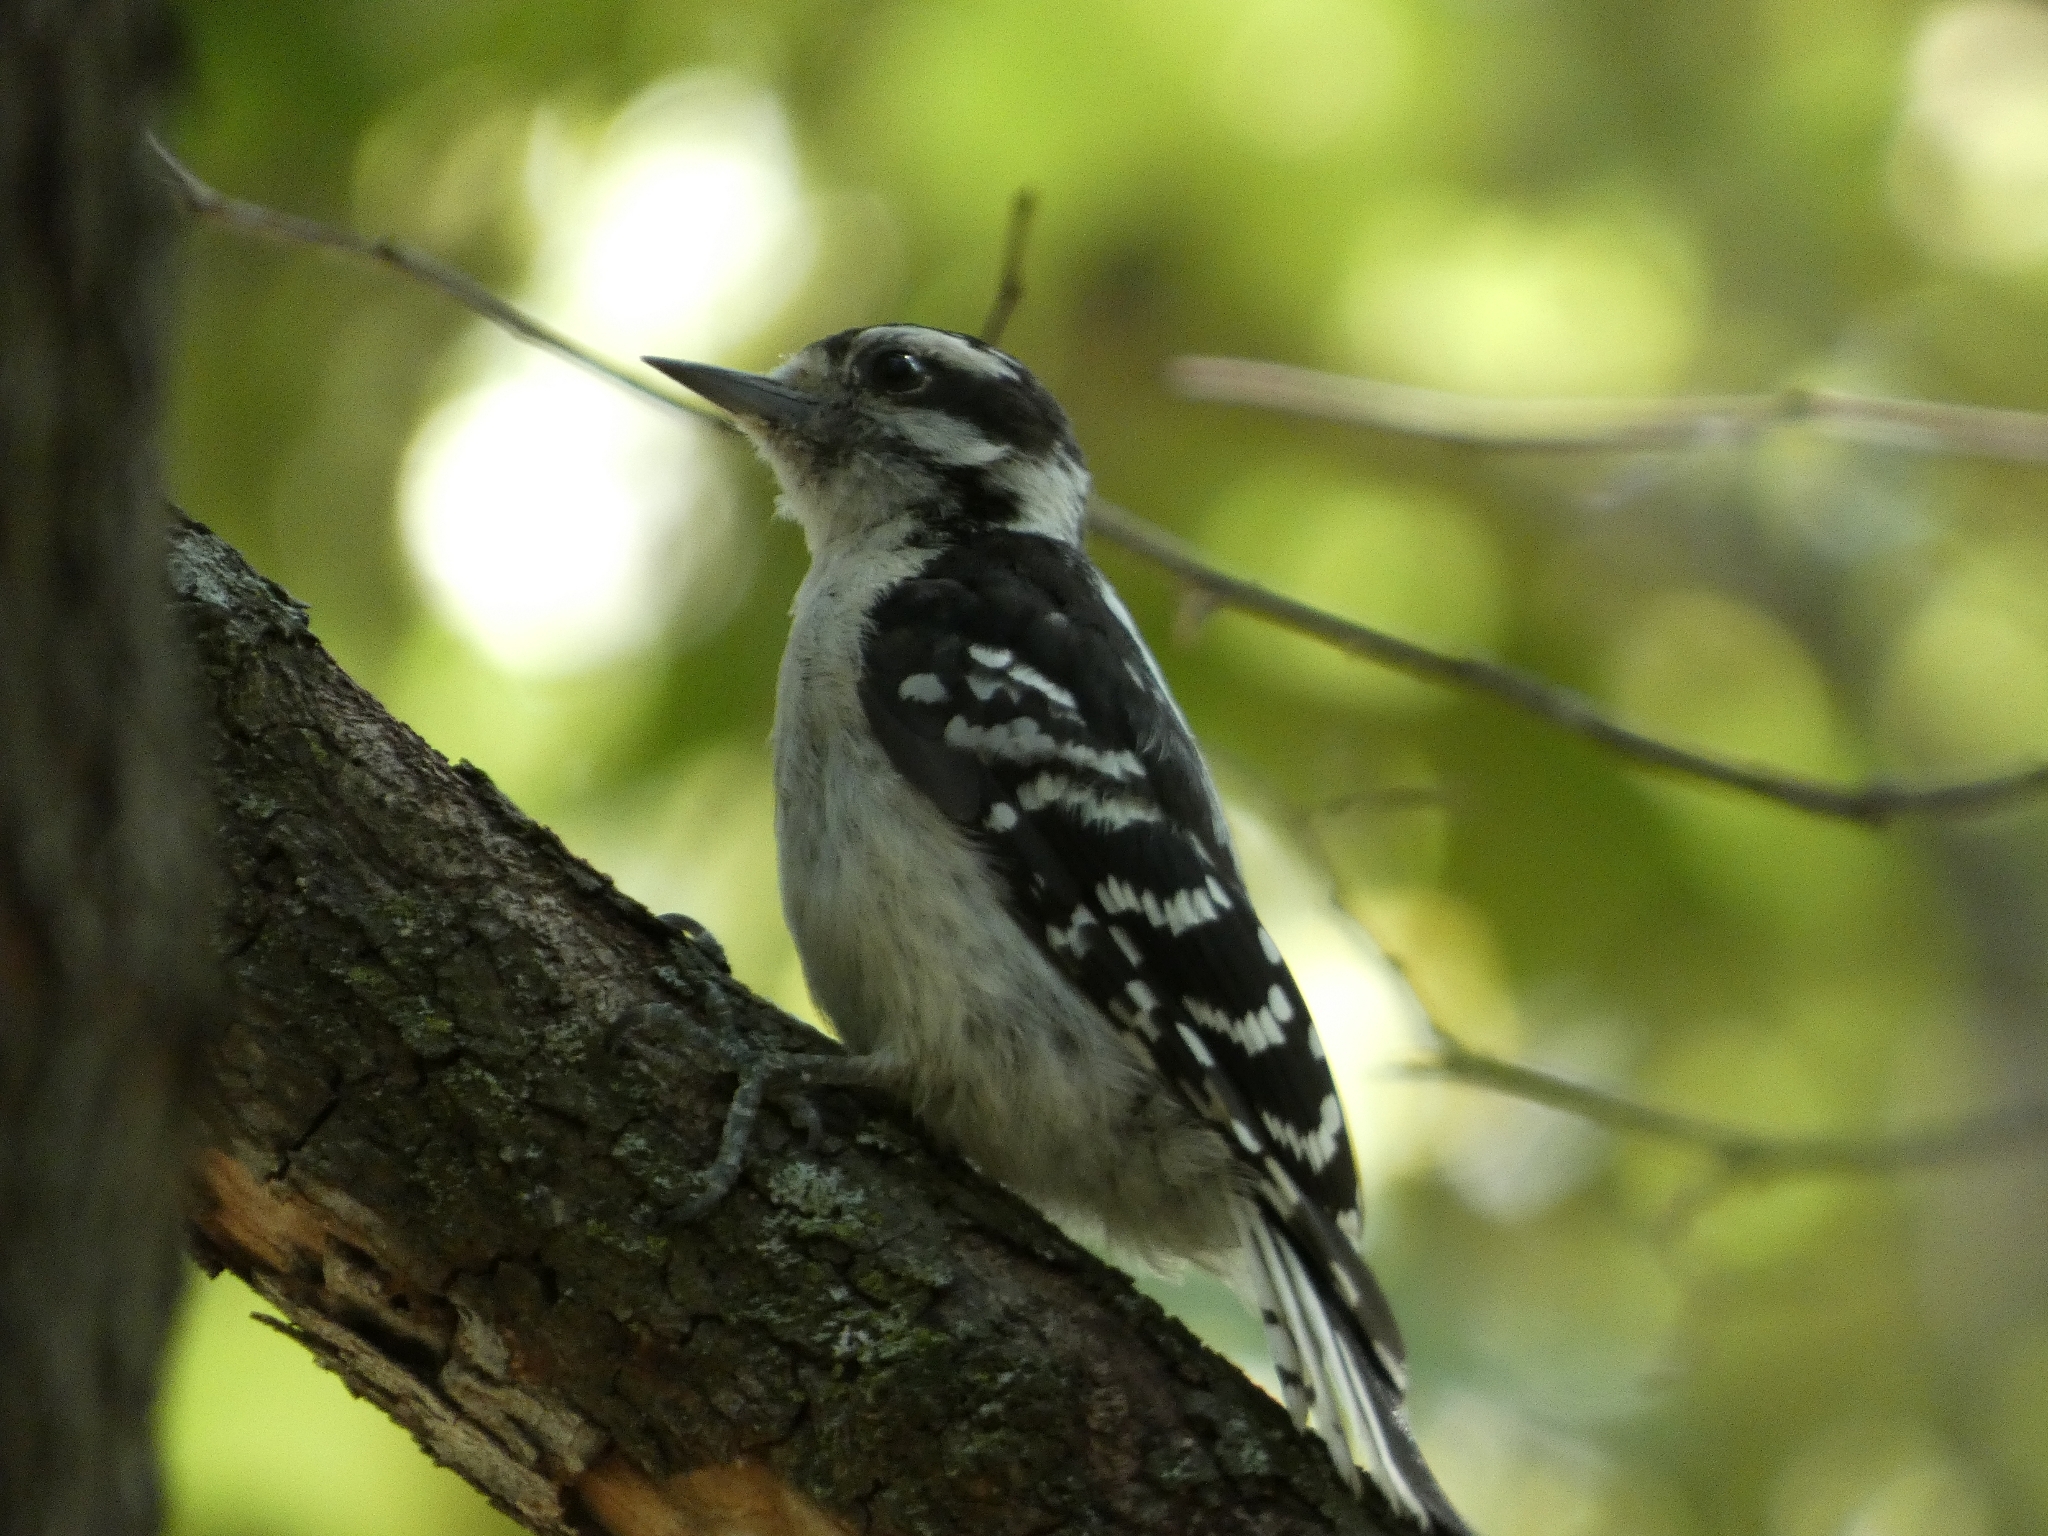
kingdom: Animalia
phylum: Chordata
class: Aves
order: Piciformes
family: Picidae
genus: Dryobates
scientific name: Dryobates pubescens
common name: Downy woodpecker
